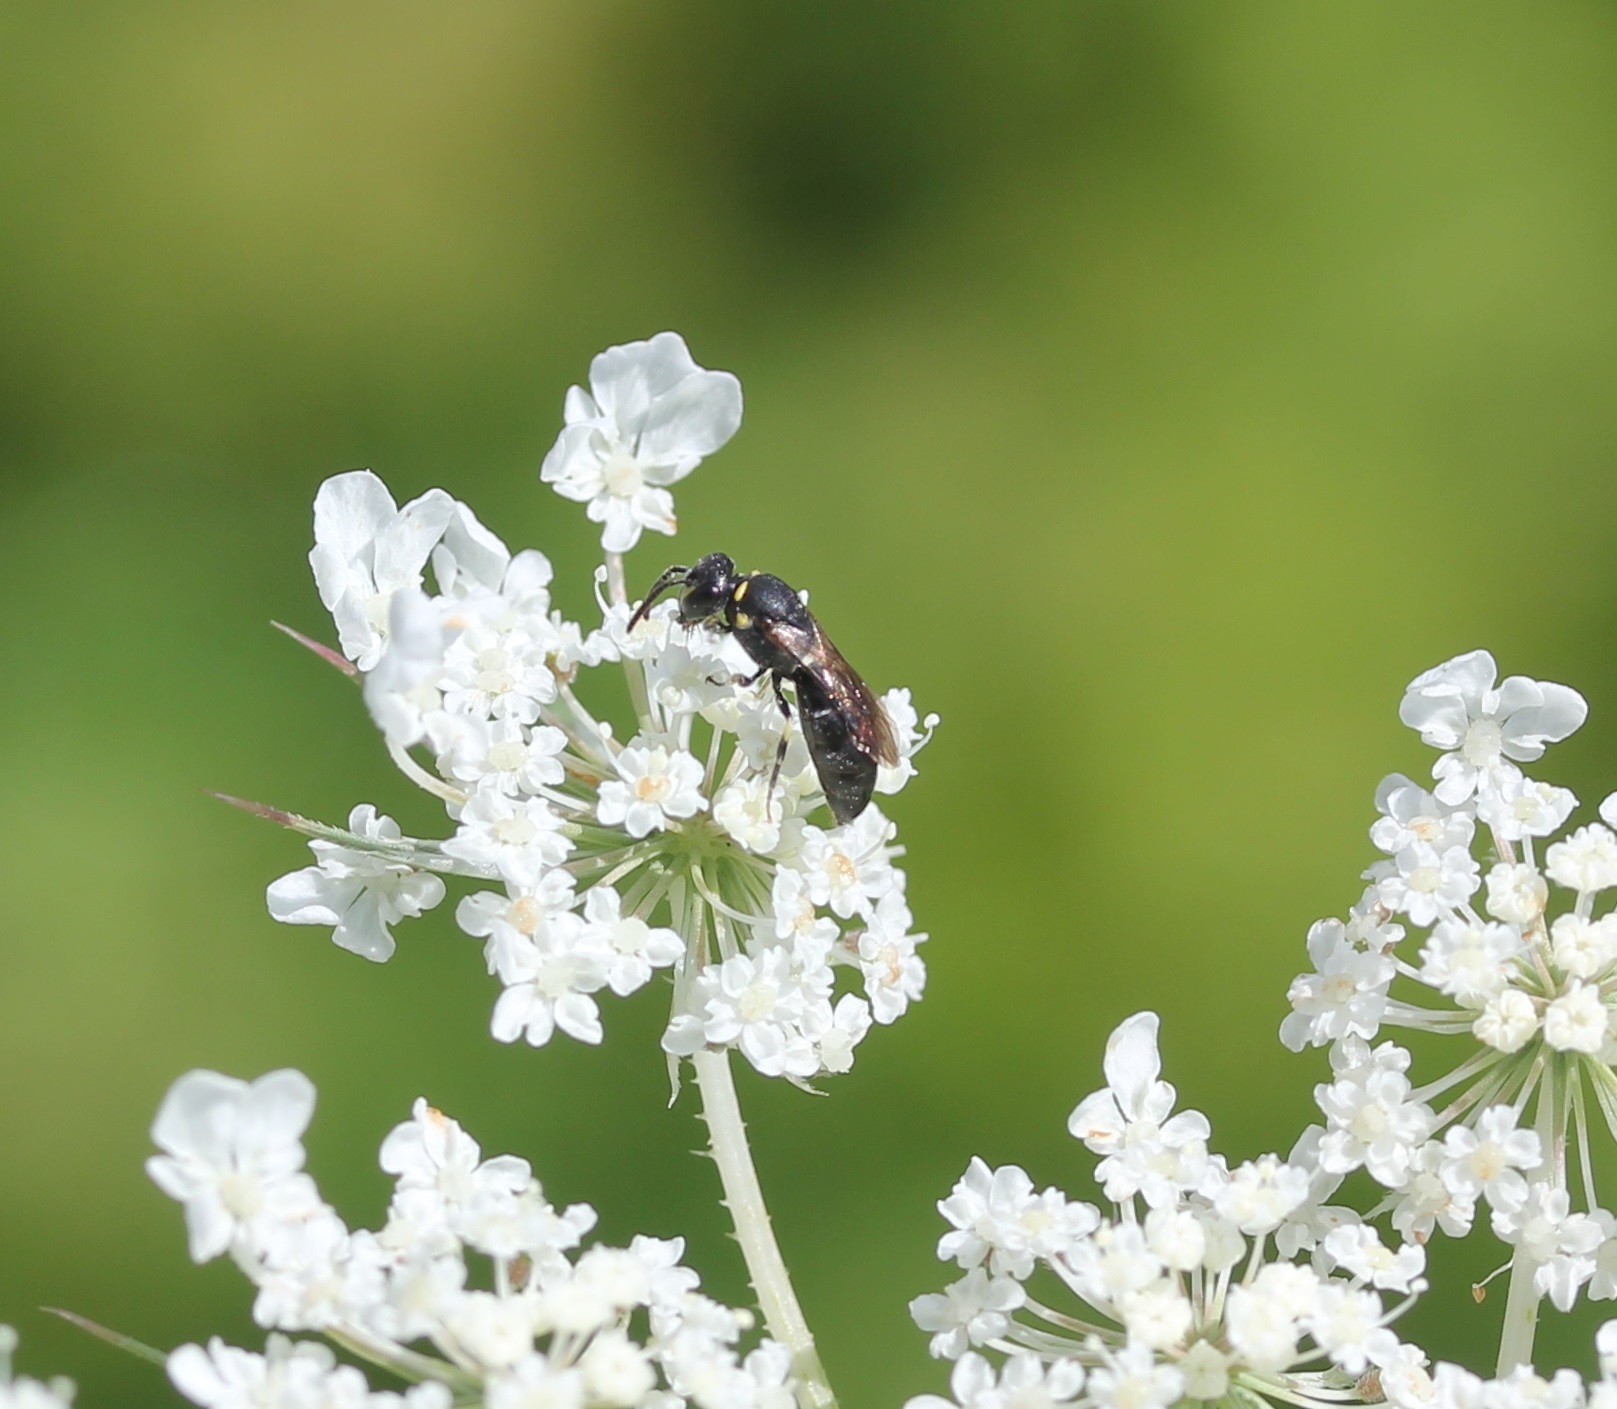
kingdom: Animalia
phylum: Arthropoda
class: Insecta
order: Hymenoptera
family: Colletidae
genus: Hylaeus
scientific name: Hylaeus modestus
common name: Yellow-faced bee
